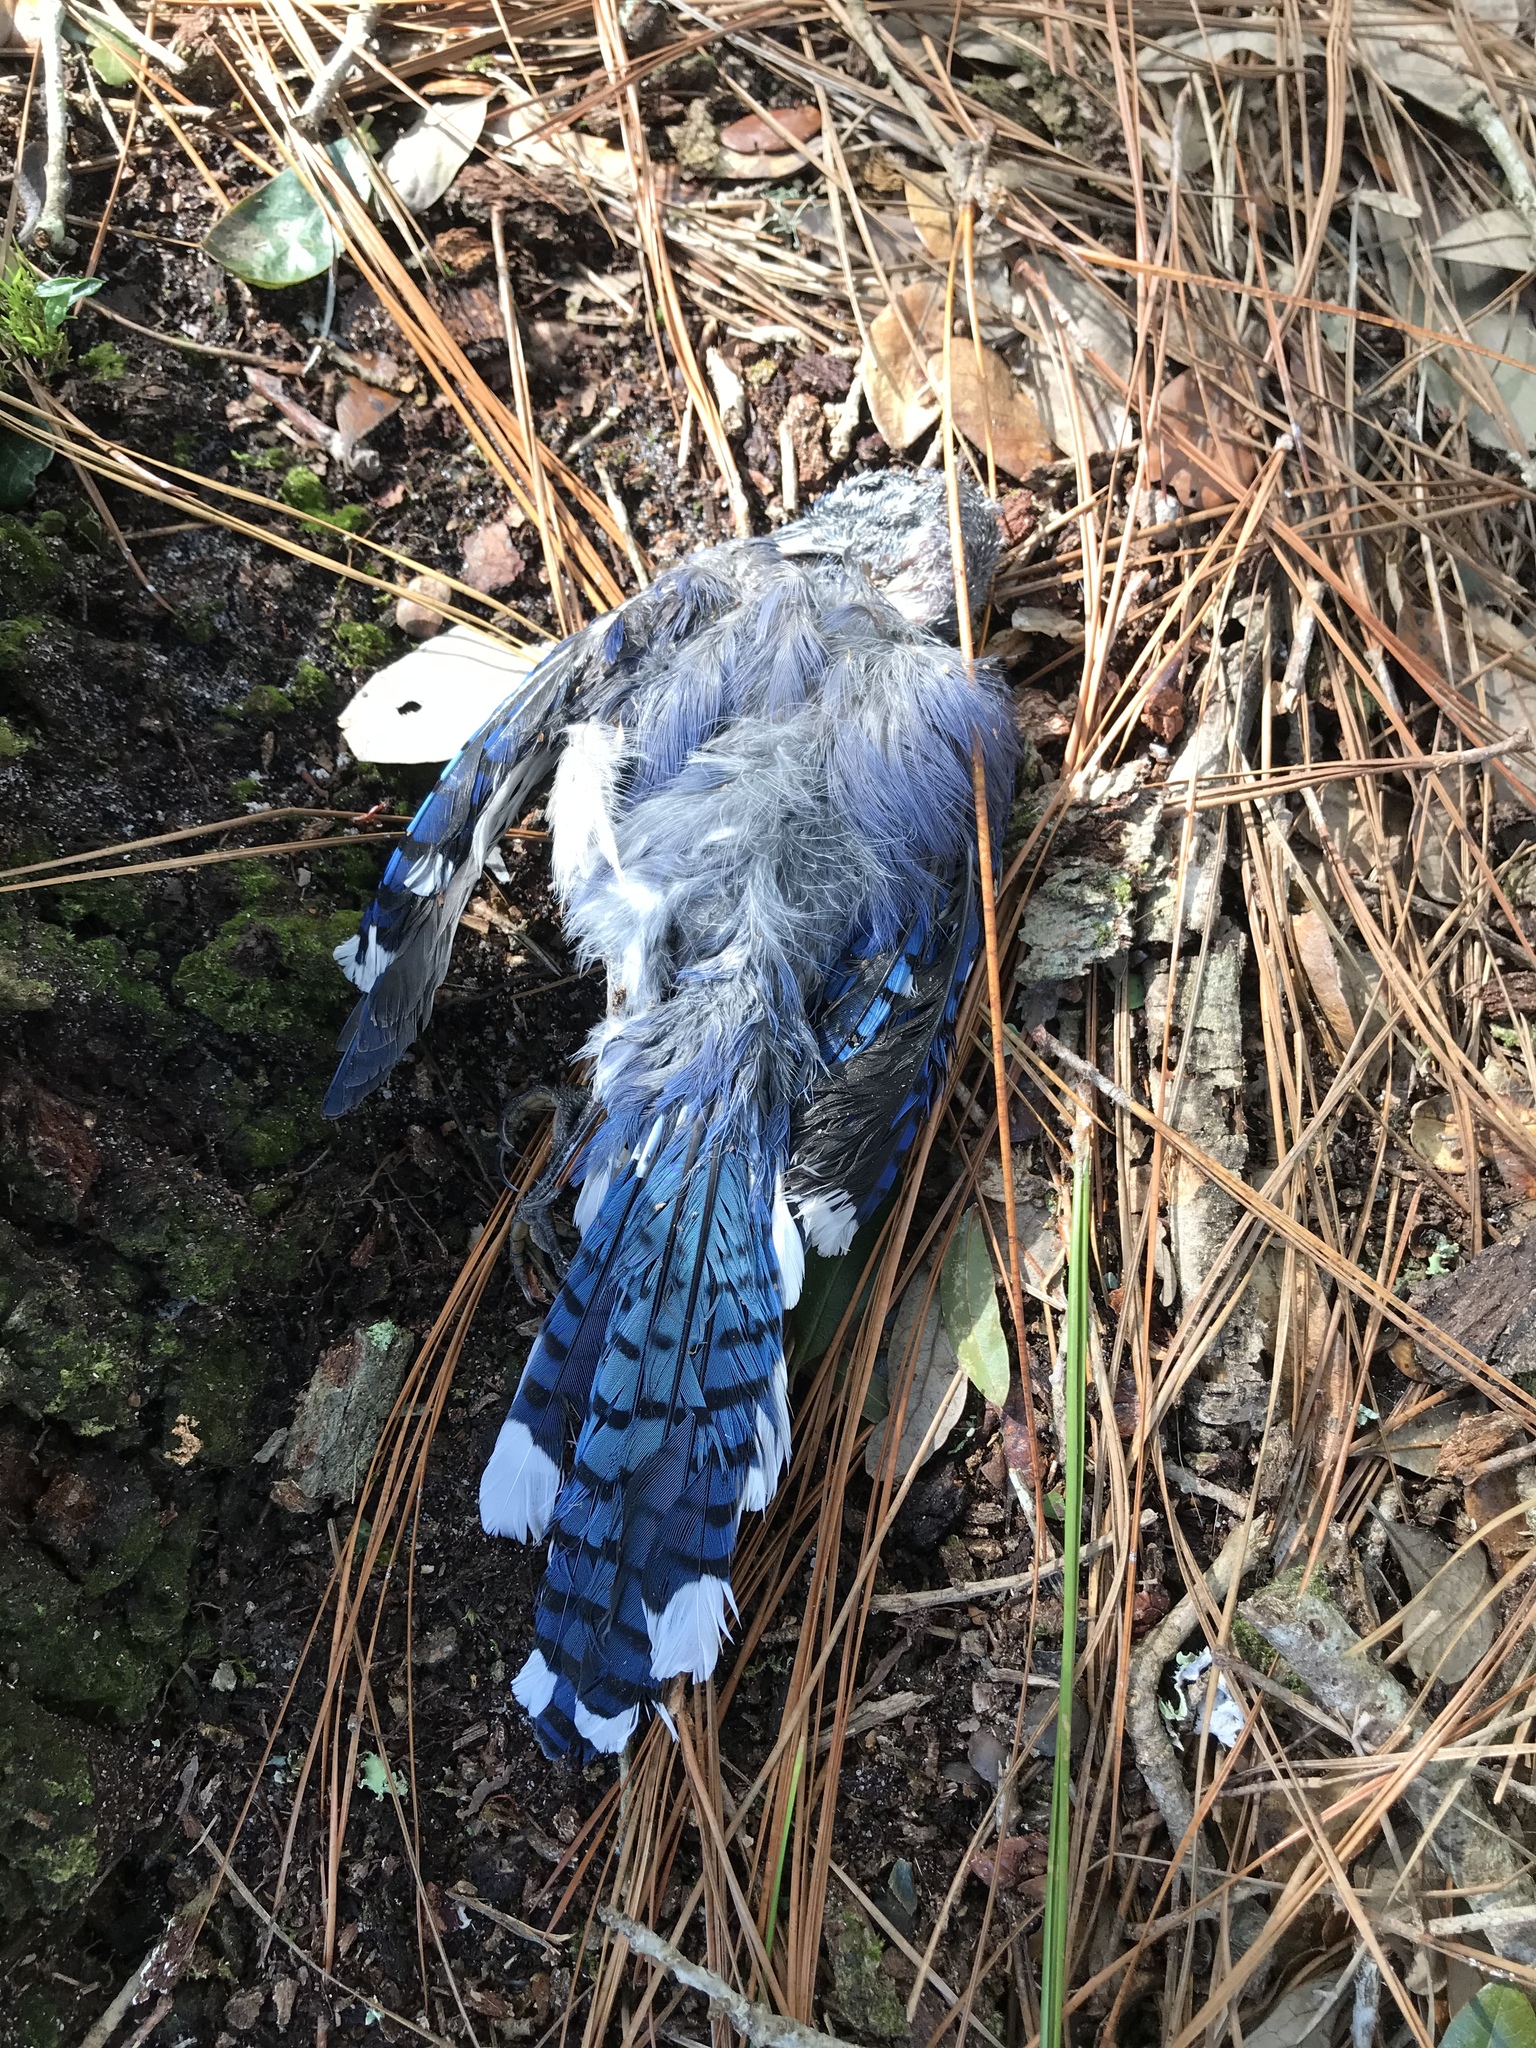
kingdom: Animalia
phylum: Chordata
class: Aves
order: Passeriformes
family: Corvidae
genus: Cyanocitta
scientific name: Cyanocitta cristata
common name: Blue jay
